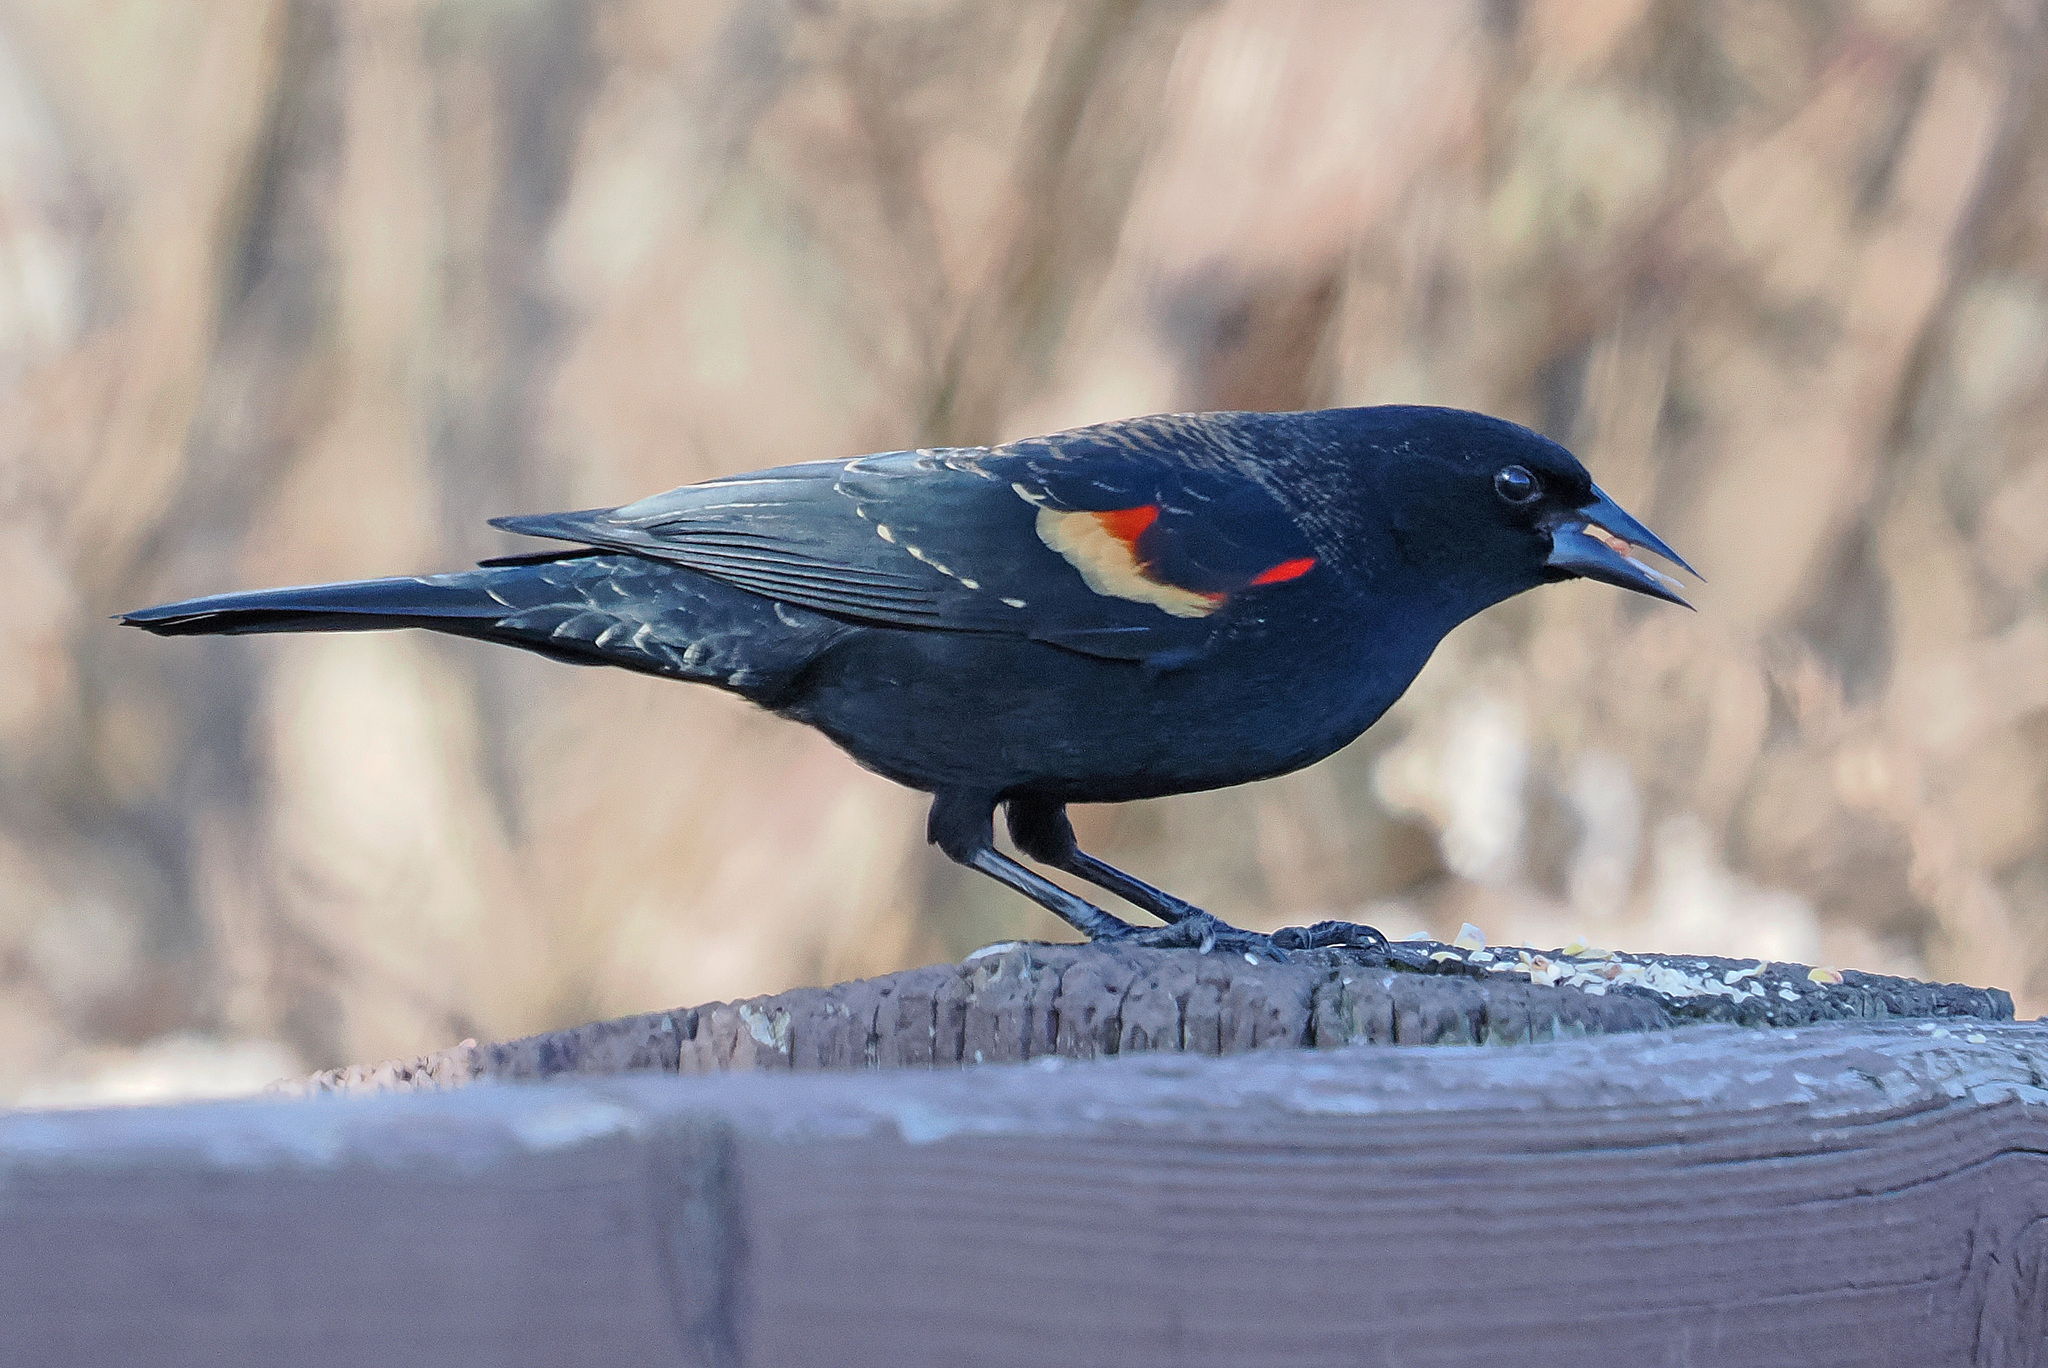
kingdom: Animalia
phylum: Chordata
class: Aves
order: Passeriformes
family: Icteridae
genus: Agelaius
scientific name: Agelaius phoeniceus
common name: Red-winged blackbird
